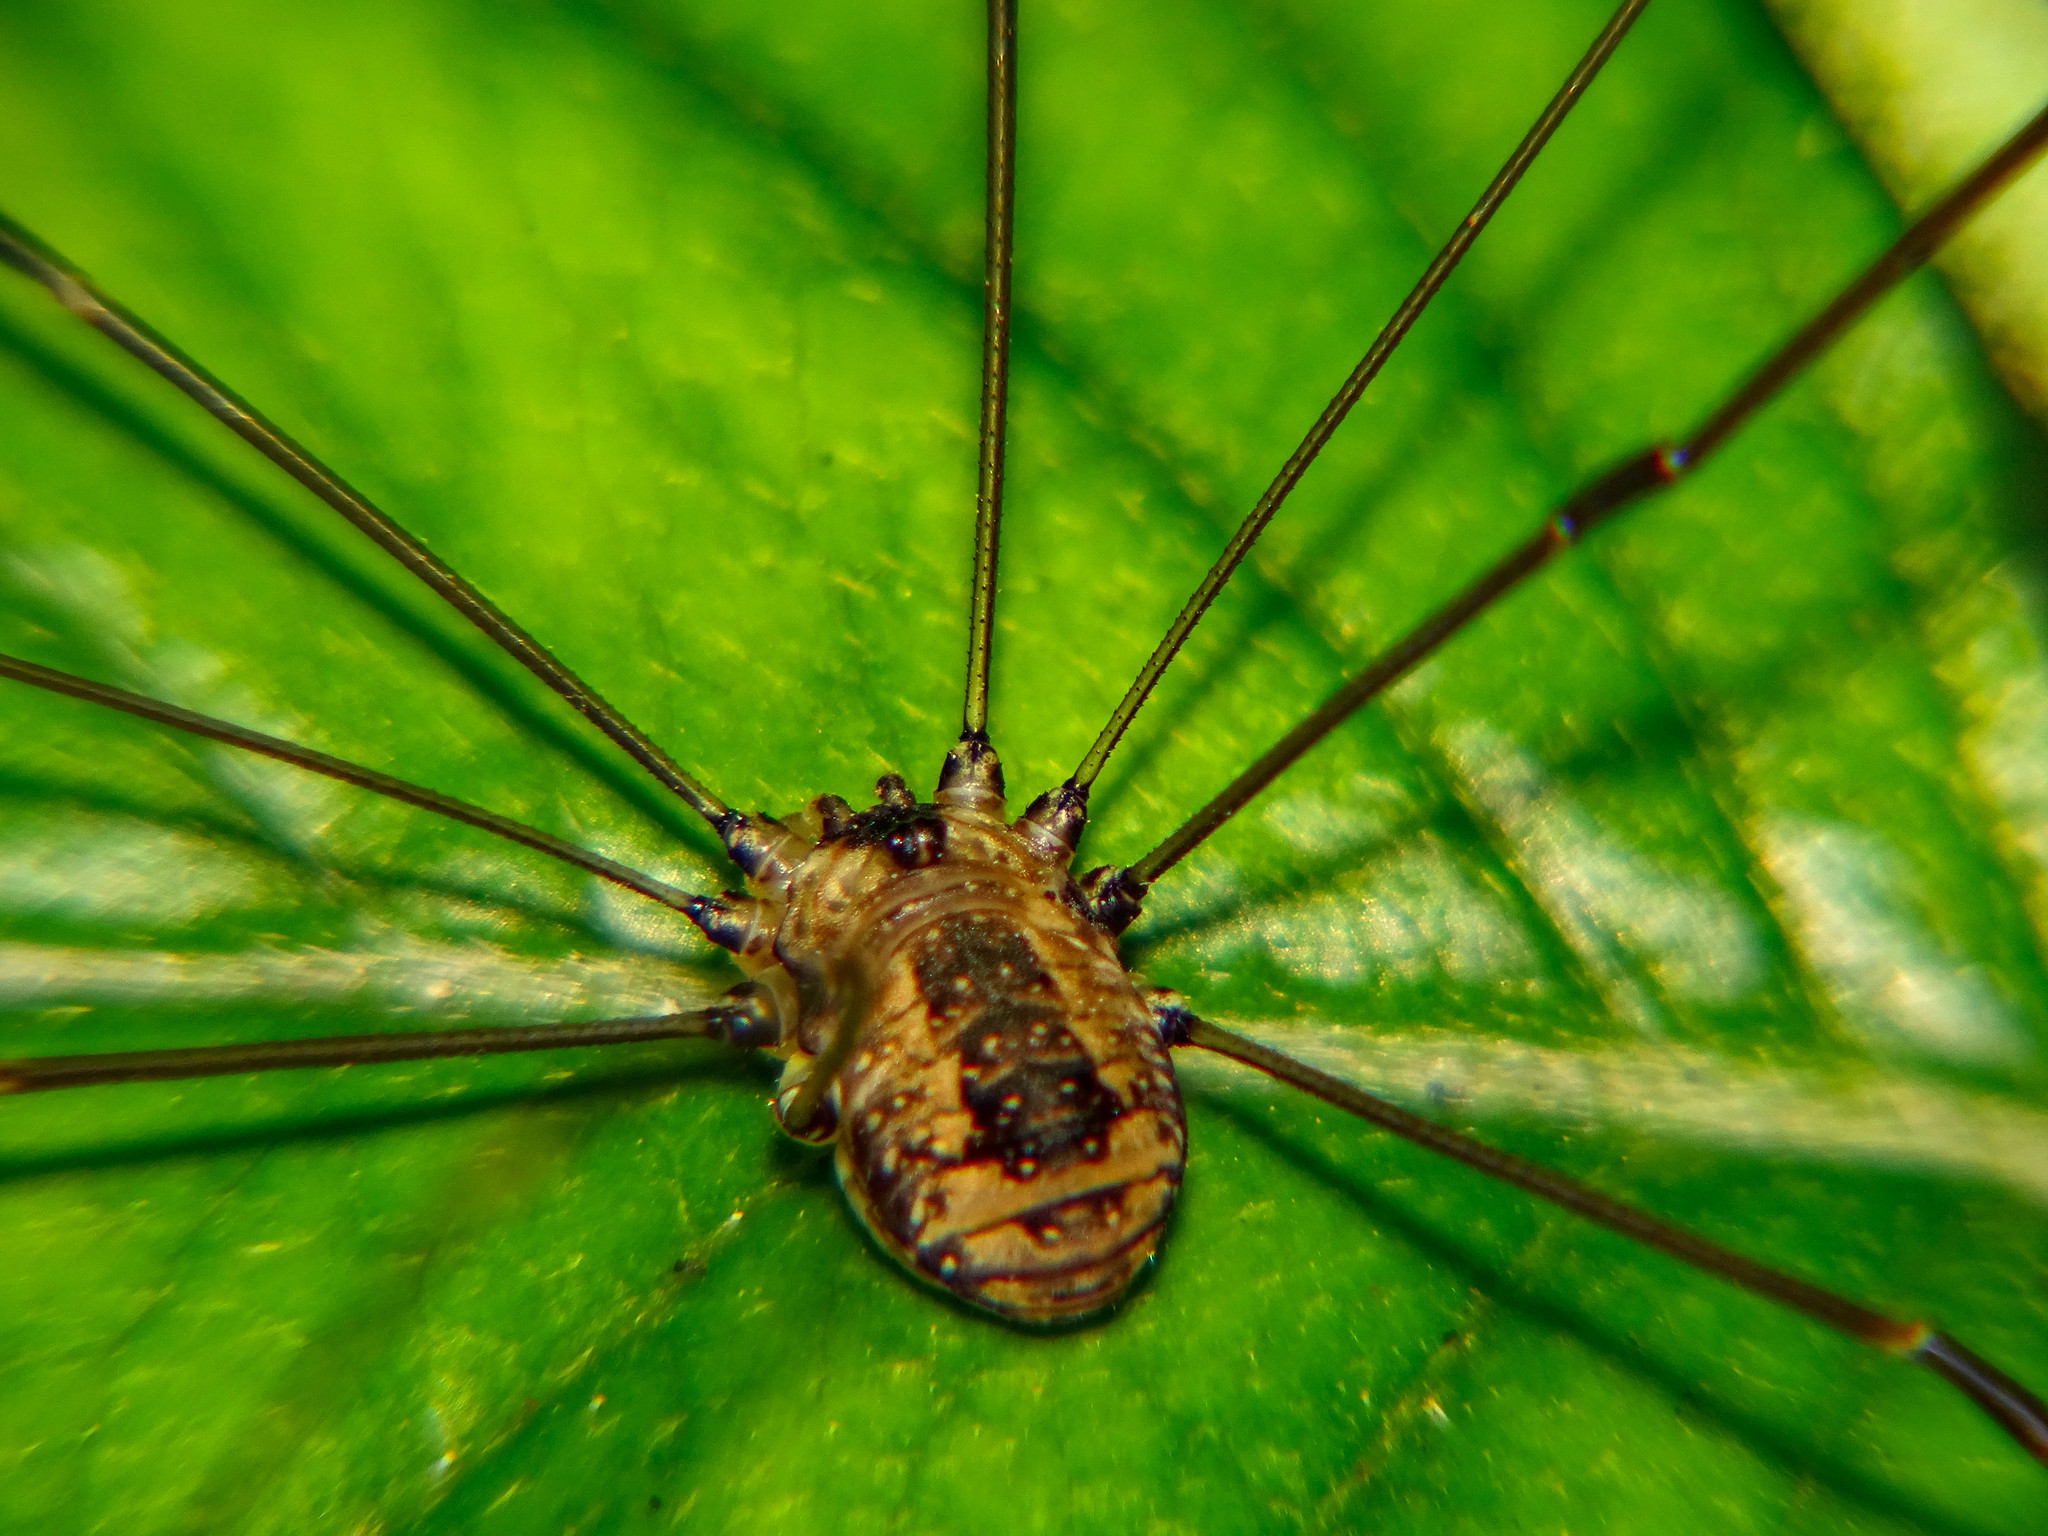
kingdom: Animalia
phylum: Arthropoda
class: Arachnida
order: Opiliones
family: Sclerosomatidae
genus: Leiobunum
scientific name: Leiobunum rotundum
